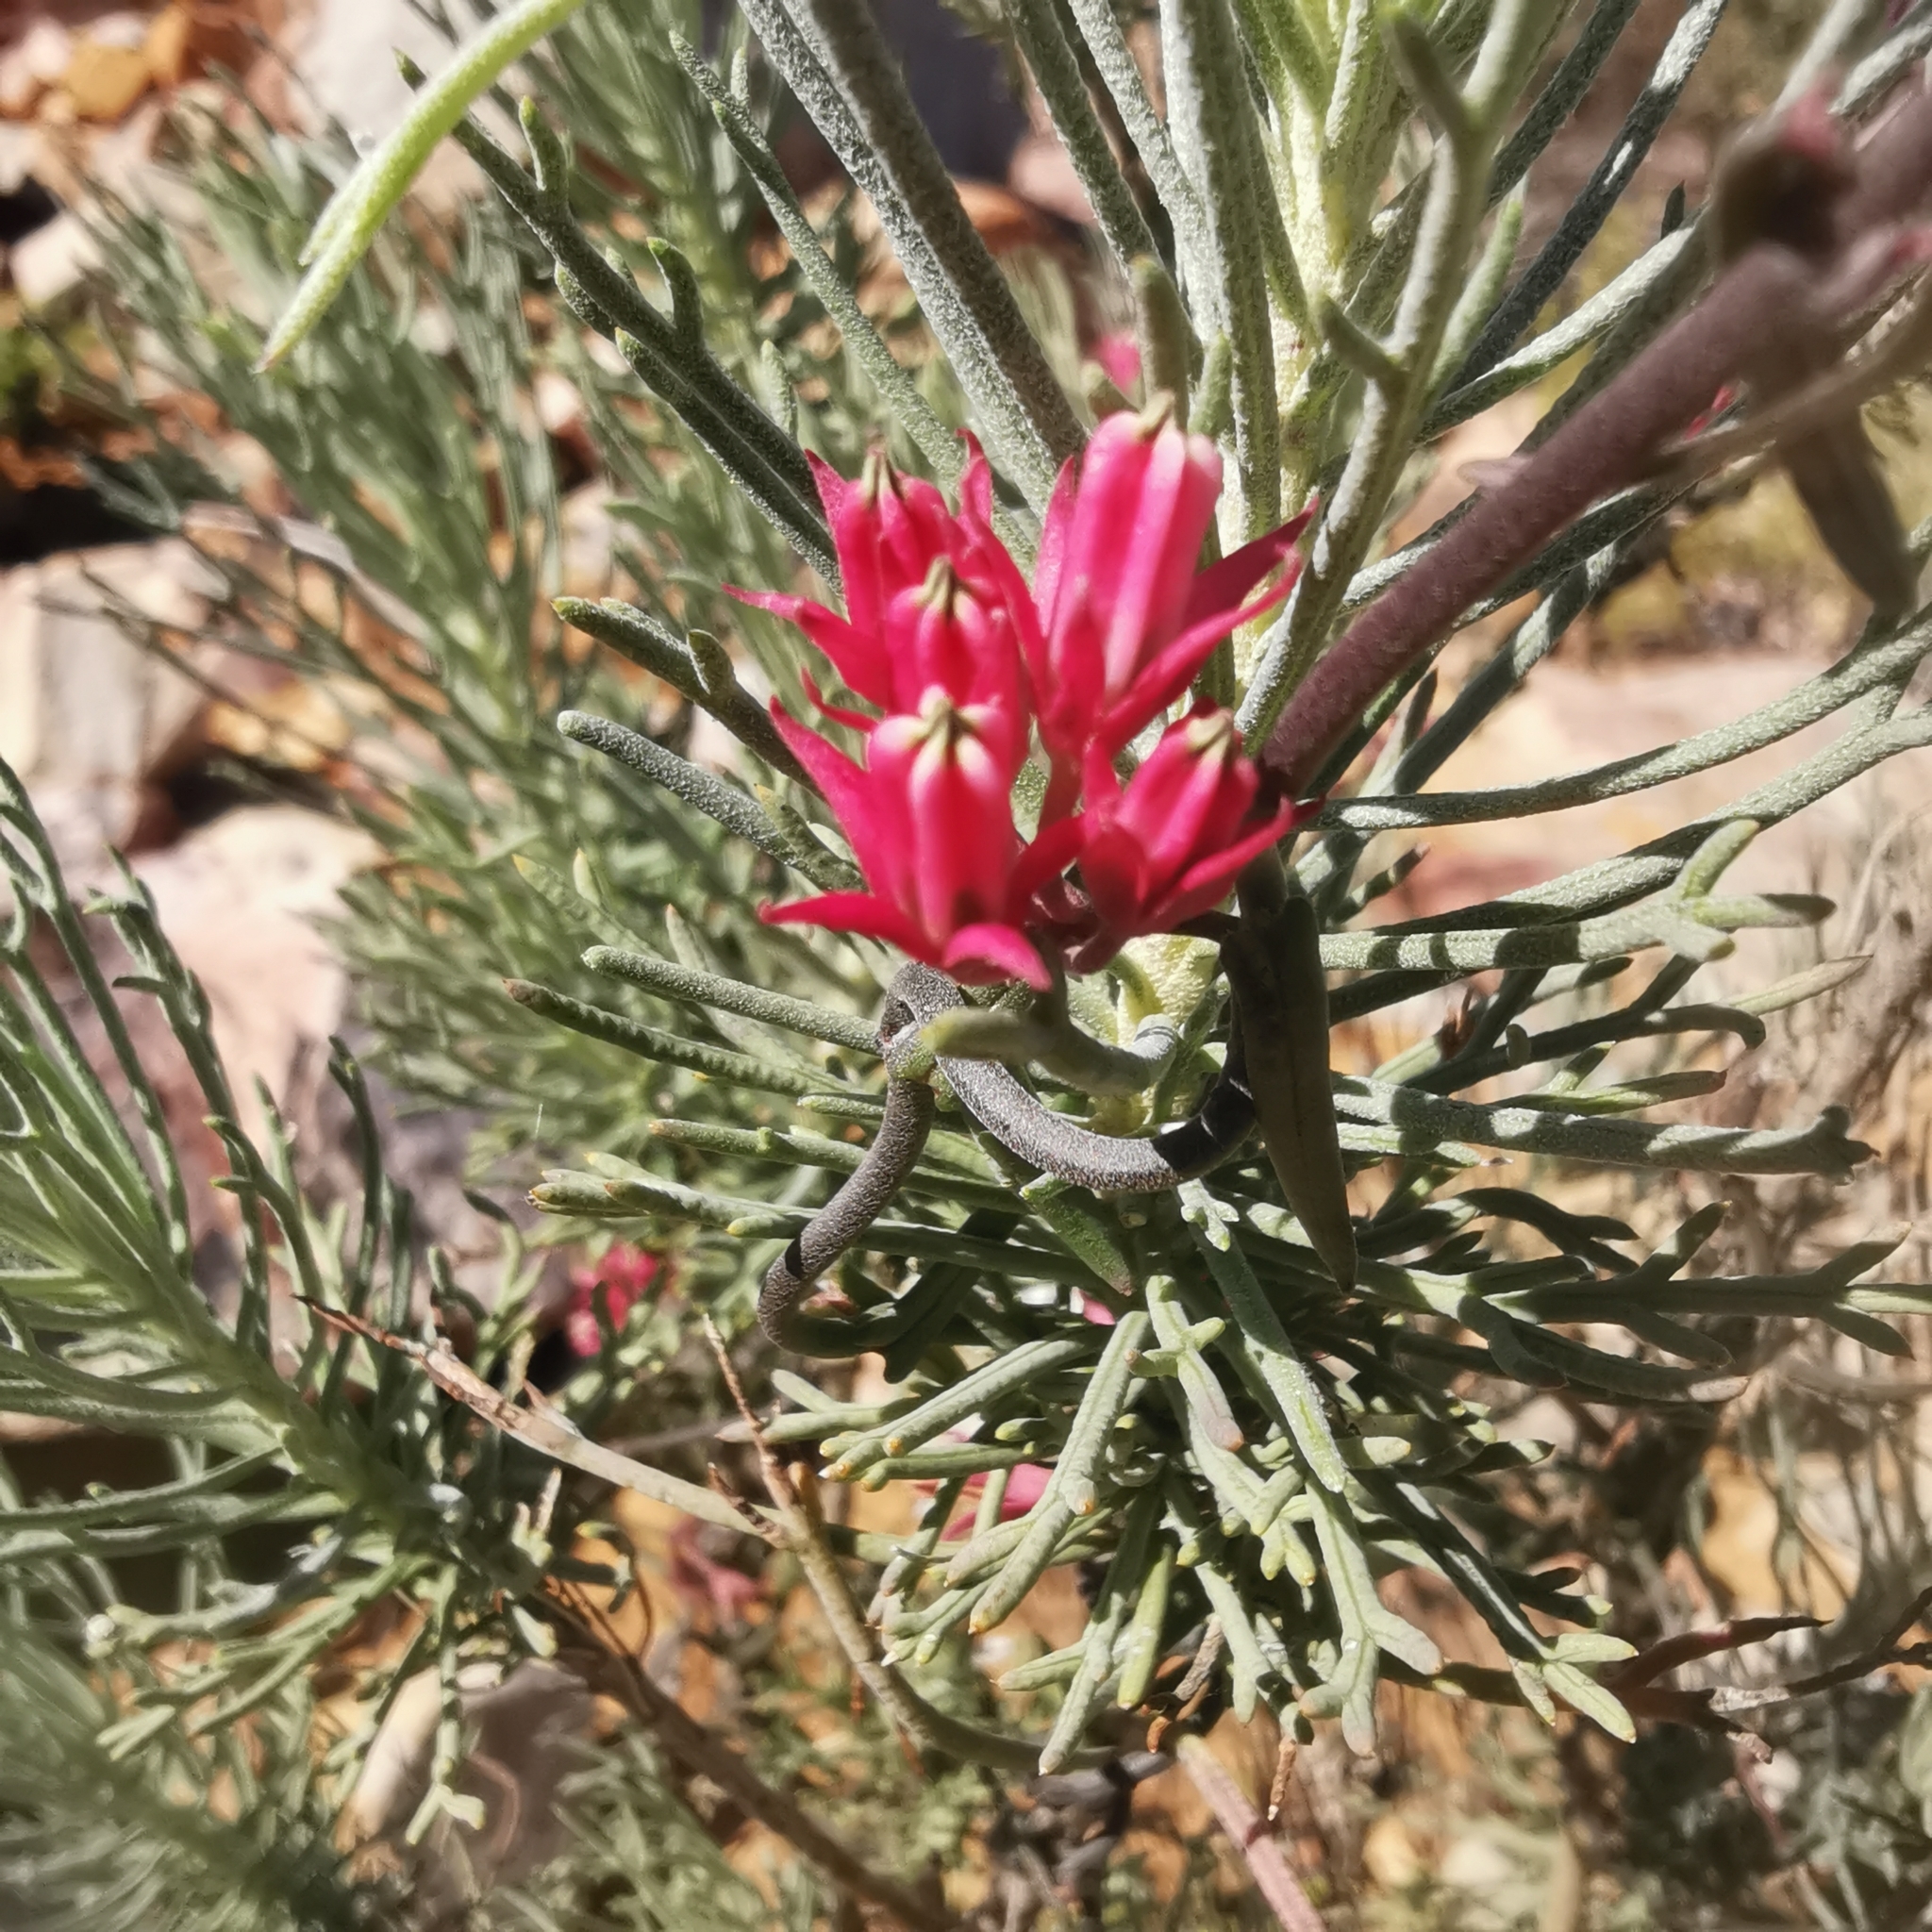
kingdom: Plantae
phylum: Tracheophyta
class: Magnoliopsida
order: Gentianales
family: Apocynaceae
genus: Microloma
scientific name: Microloma sagittatum
